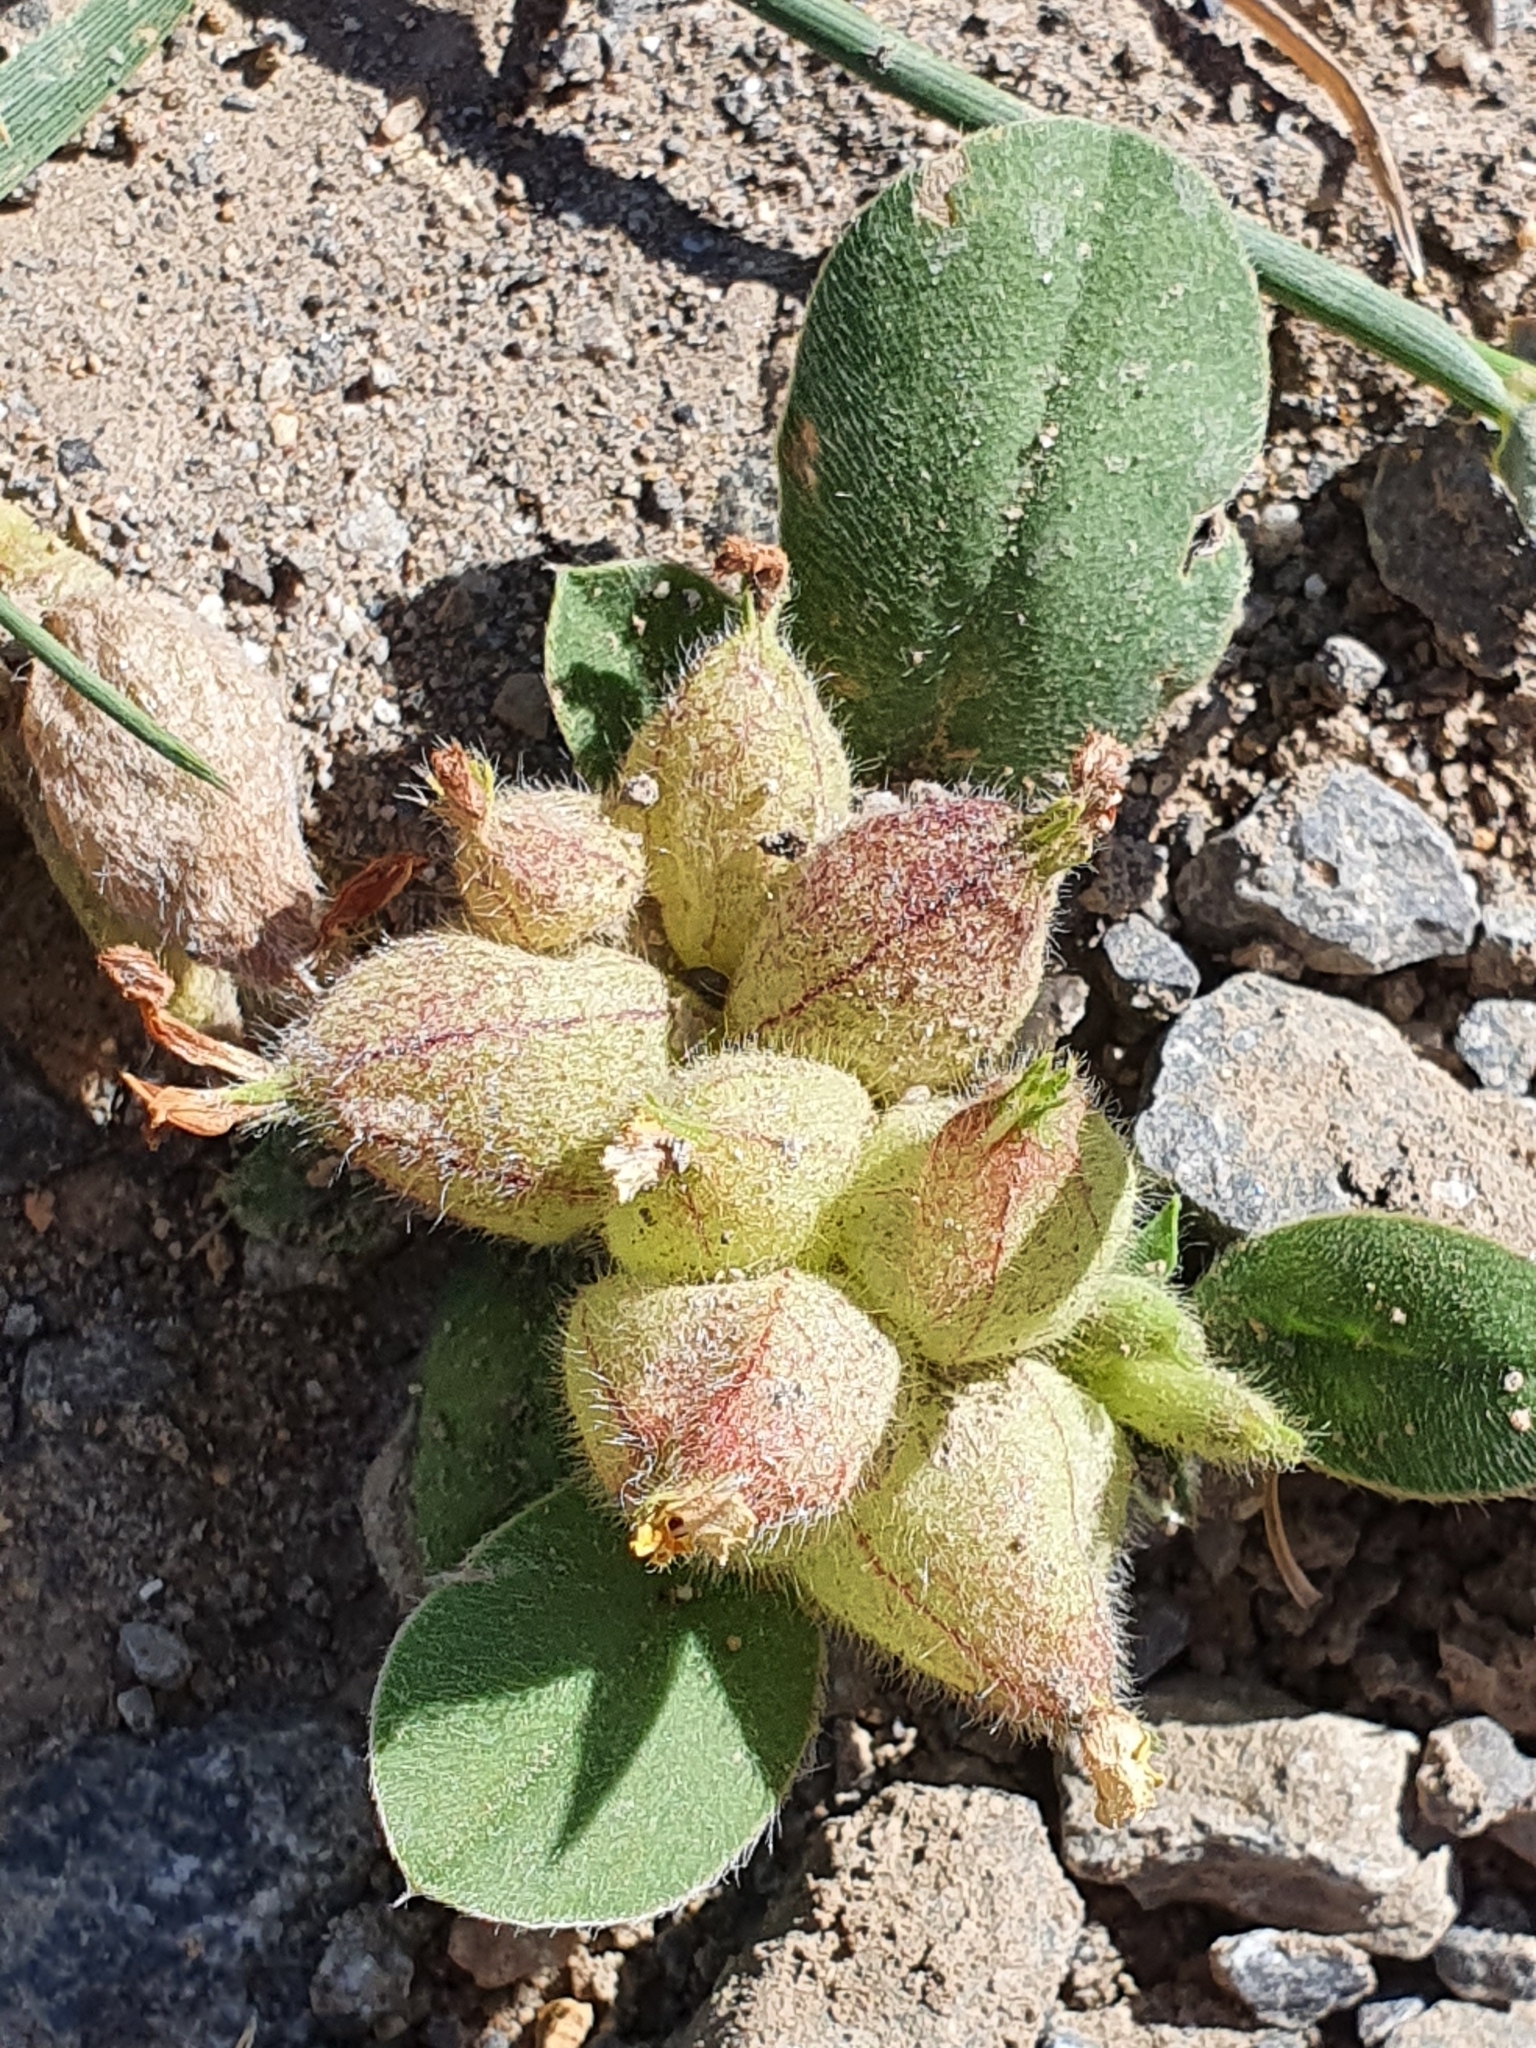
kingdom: Plantae
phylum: Tracheophyta
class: Magnoliopsida
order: Fabales
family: Fabaceae
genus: Tripodion
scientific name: Tripodion tetraphyllum
